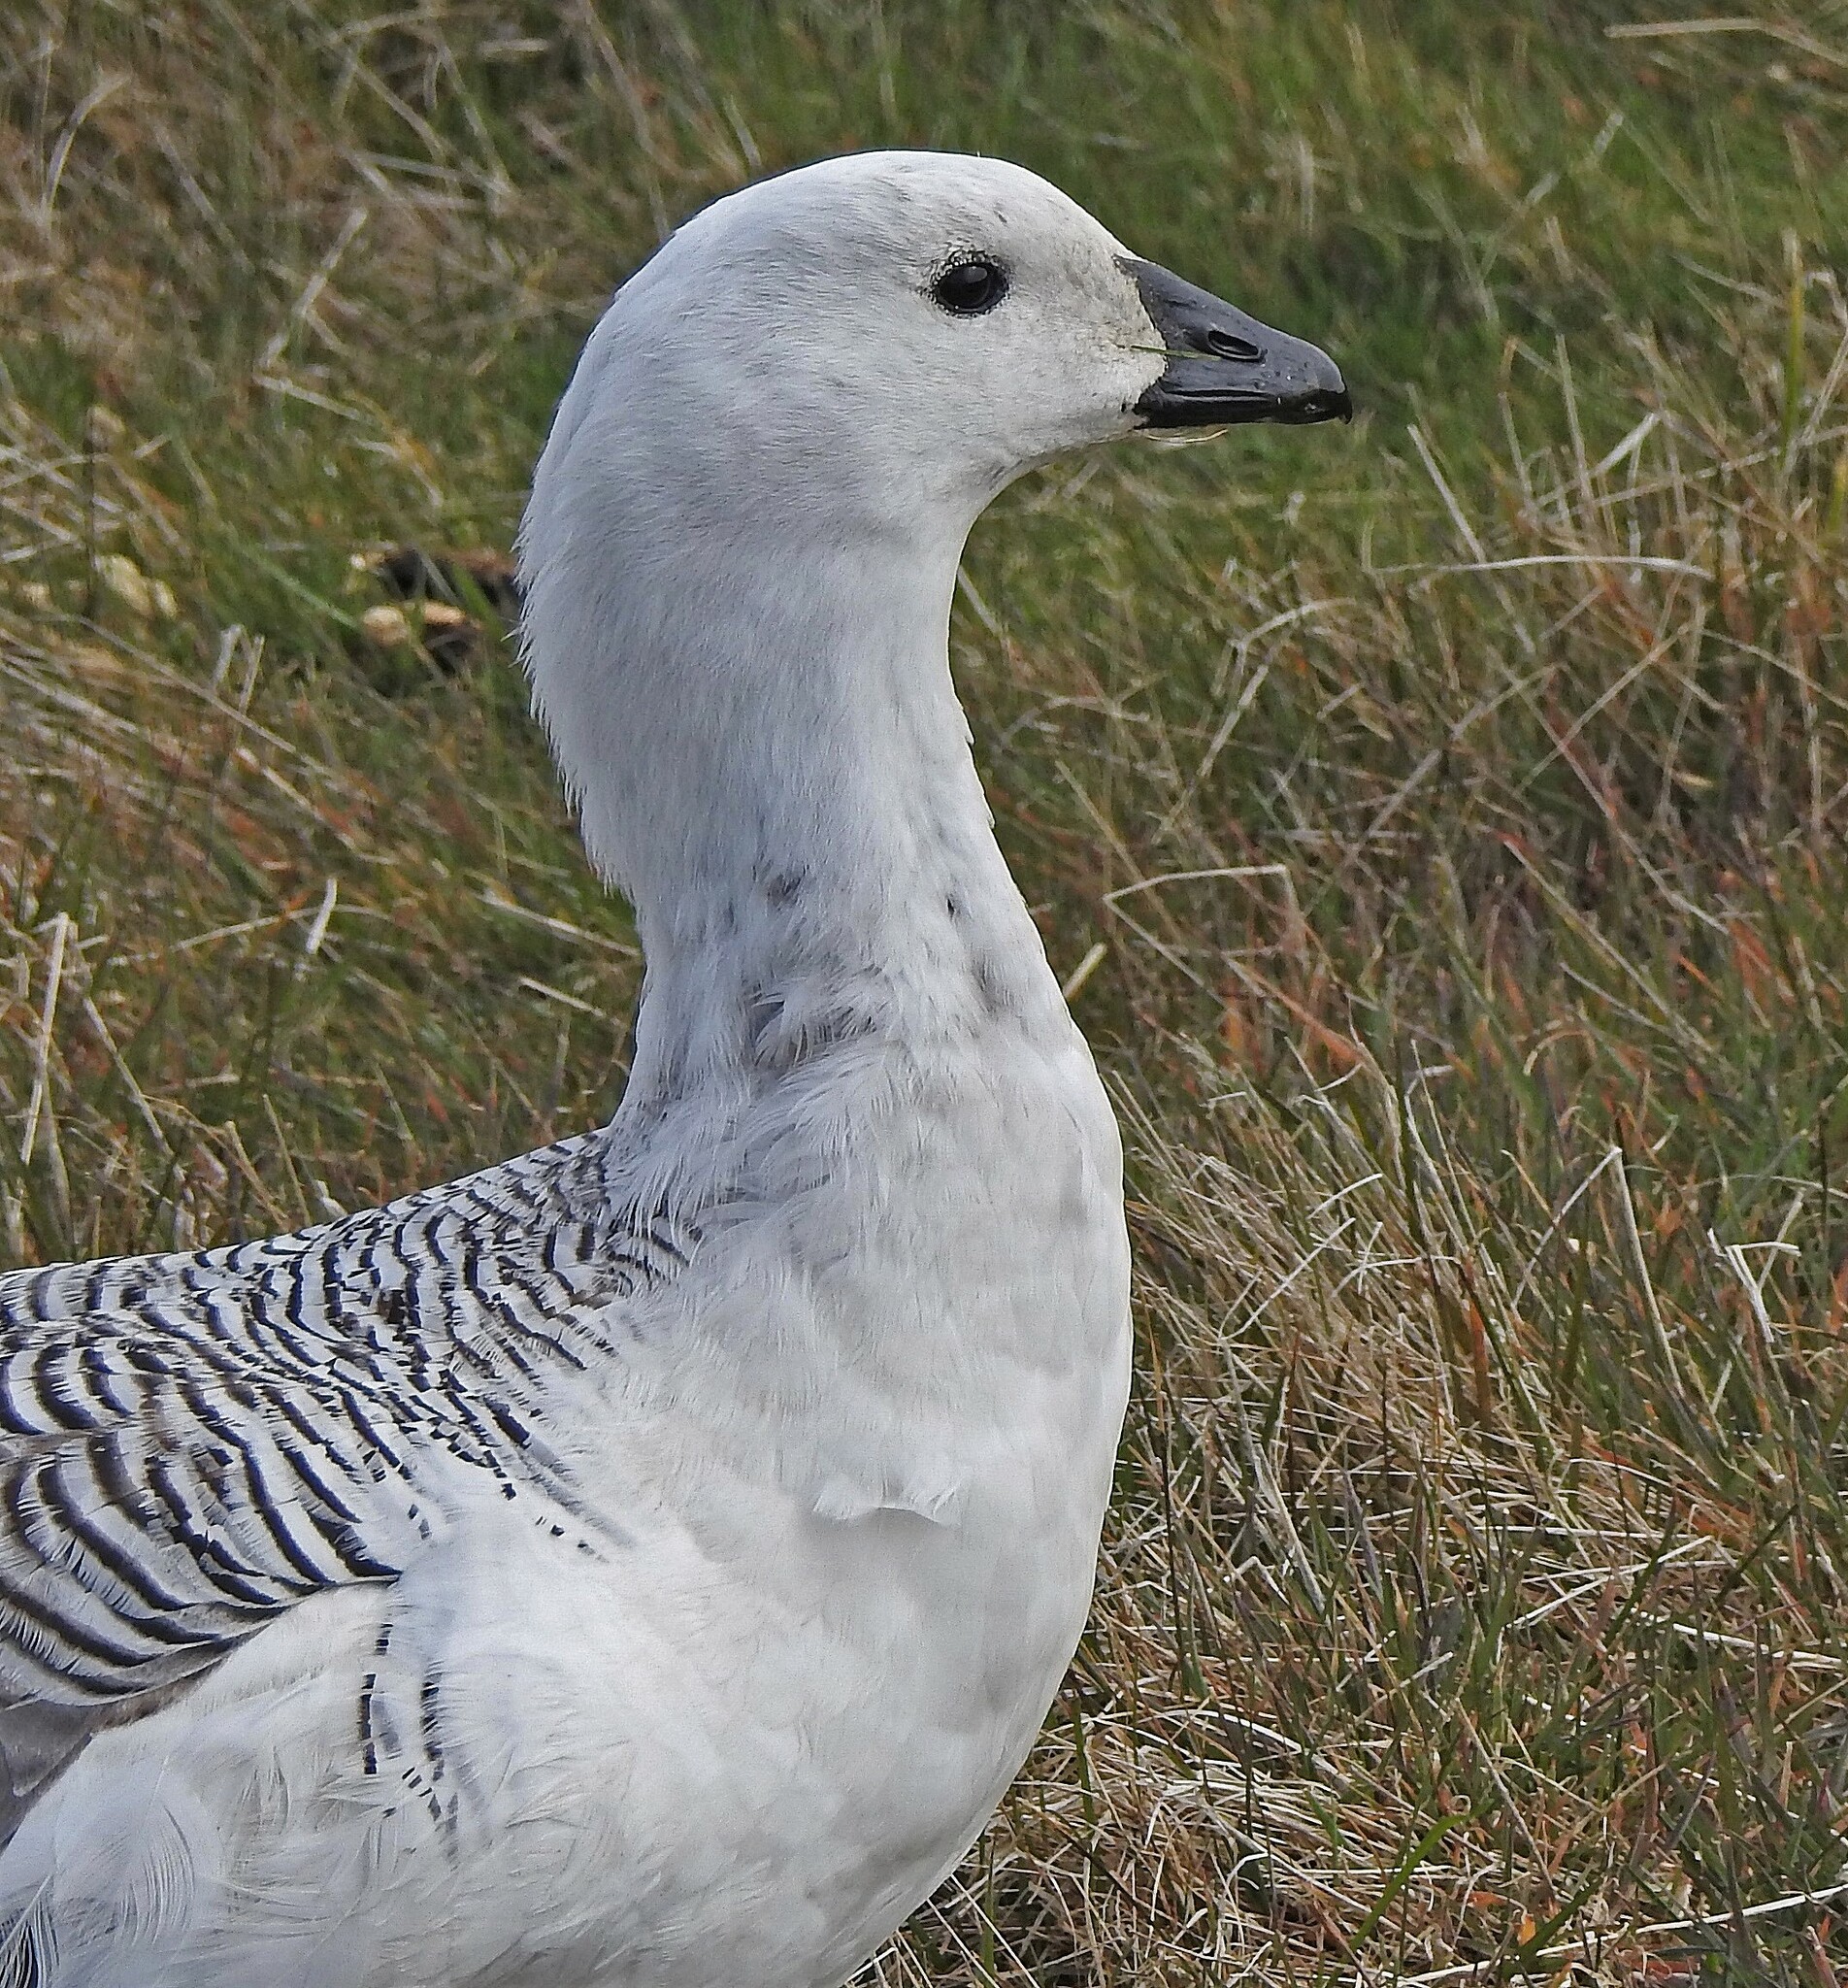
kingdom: Animalia
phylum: Chordata
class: Aves
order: Anseriformes
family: Anatidae
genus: Chloephaga
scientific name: Chloephaga picta
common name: Upland goose
